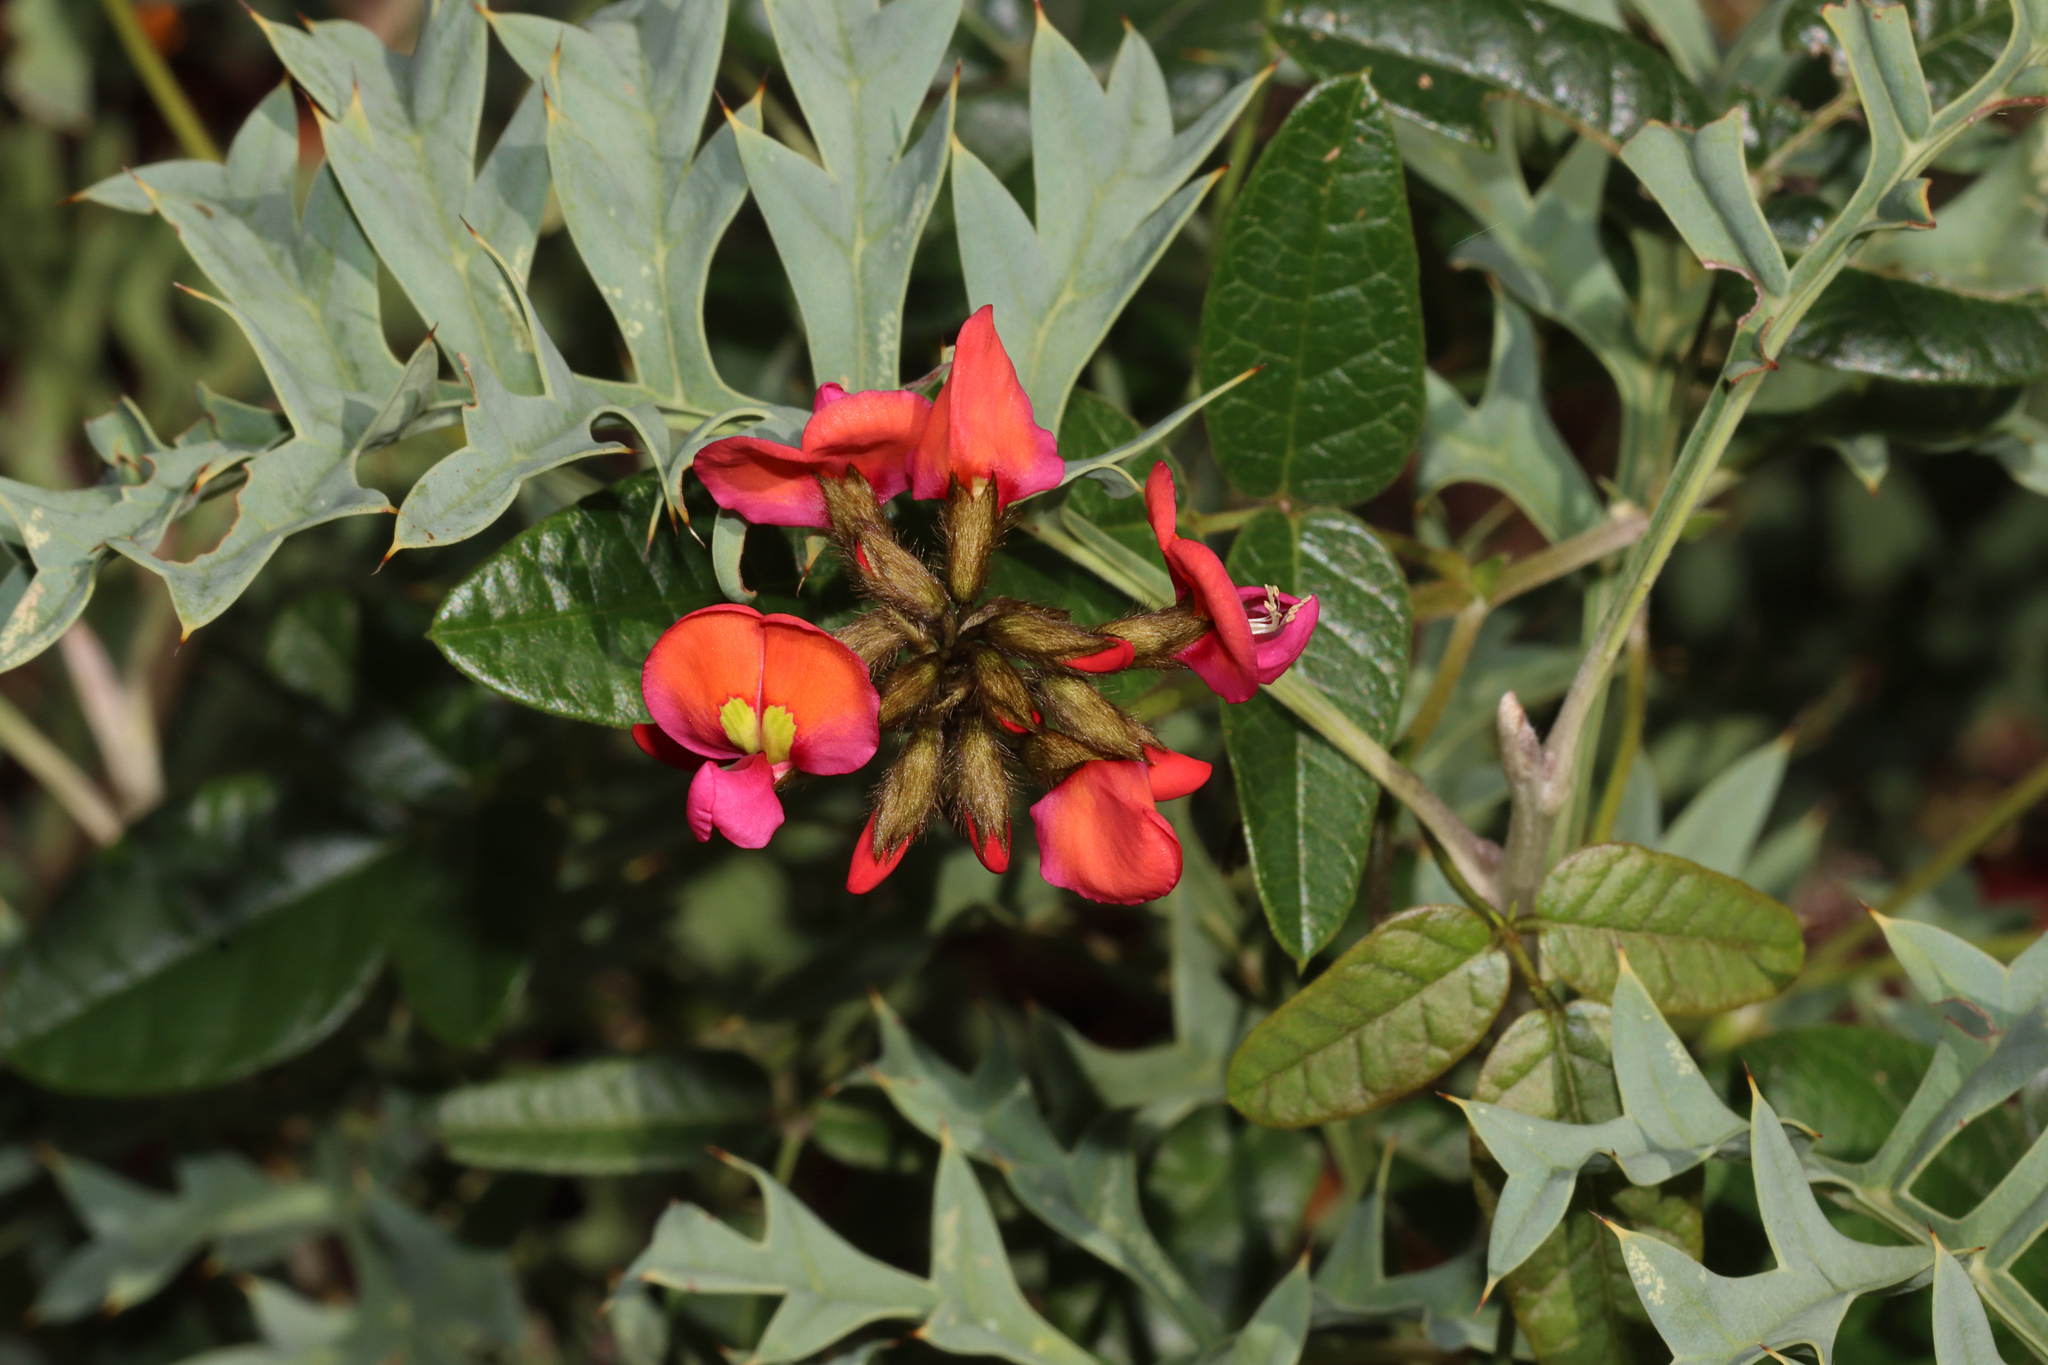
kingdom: Plantae
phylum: Tracheophyta
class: Magnoliopsida
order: Fabales
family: Fabaceae
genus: Kennedia
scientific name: Kennedia coccinea
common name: Coralvine
